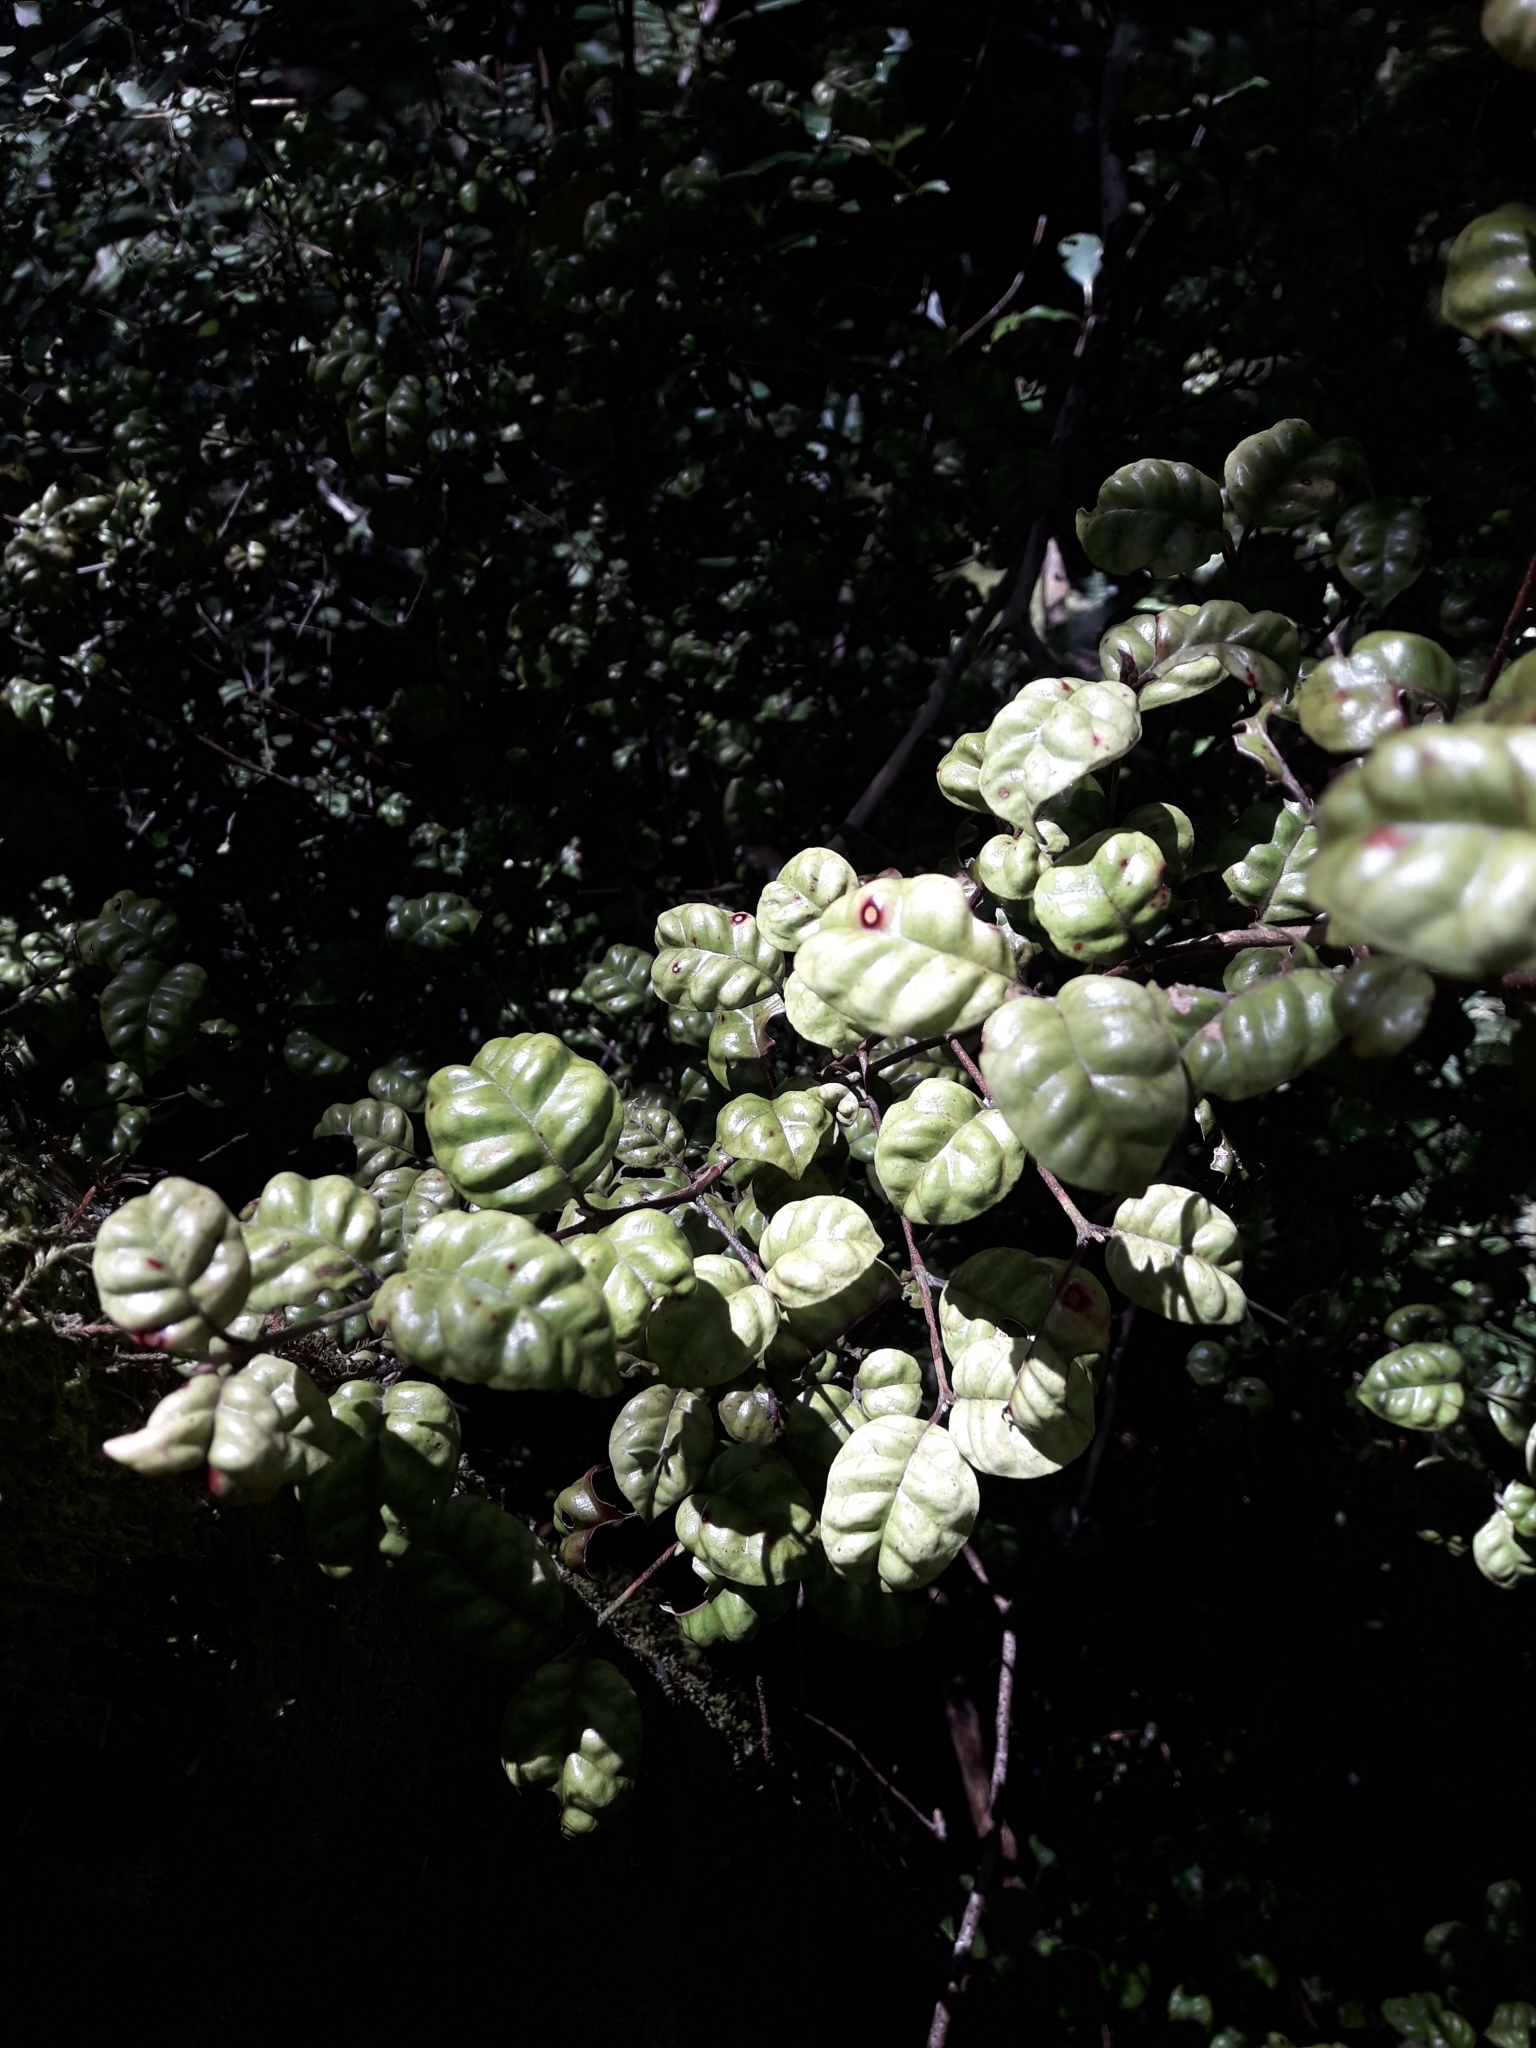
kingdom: Plantae
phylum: Tracheophyta
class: Magnoliopsida
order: Myrtales
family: Myrtaceae
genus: Lophomyrtus
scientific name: Lophomyrtus bullata
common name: Rama rama
